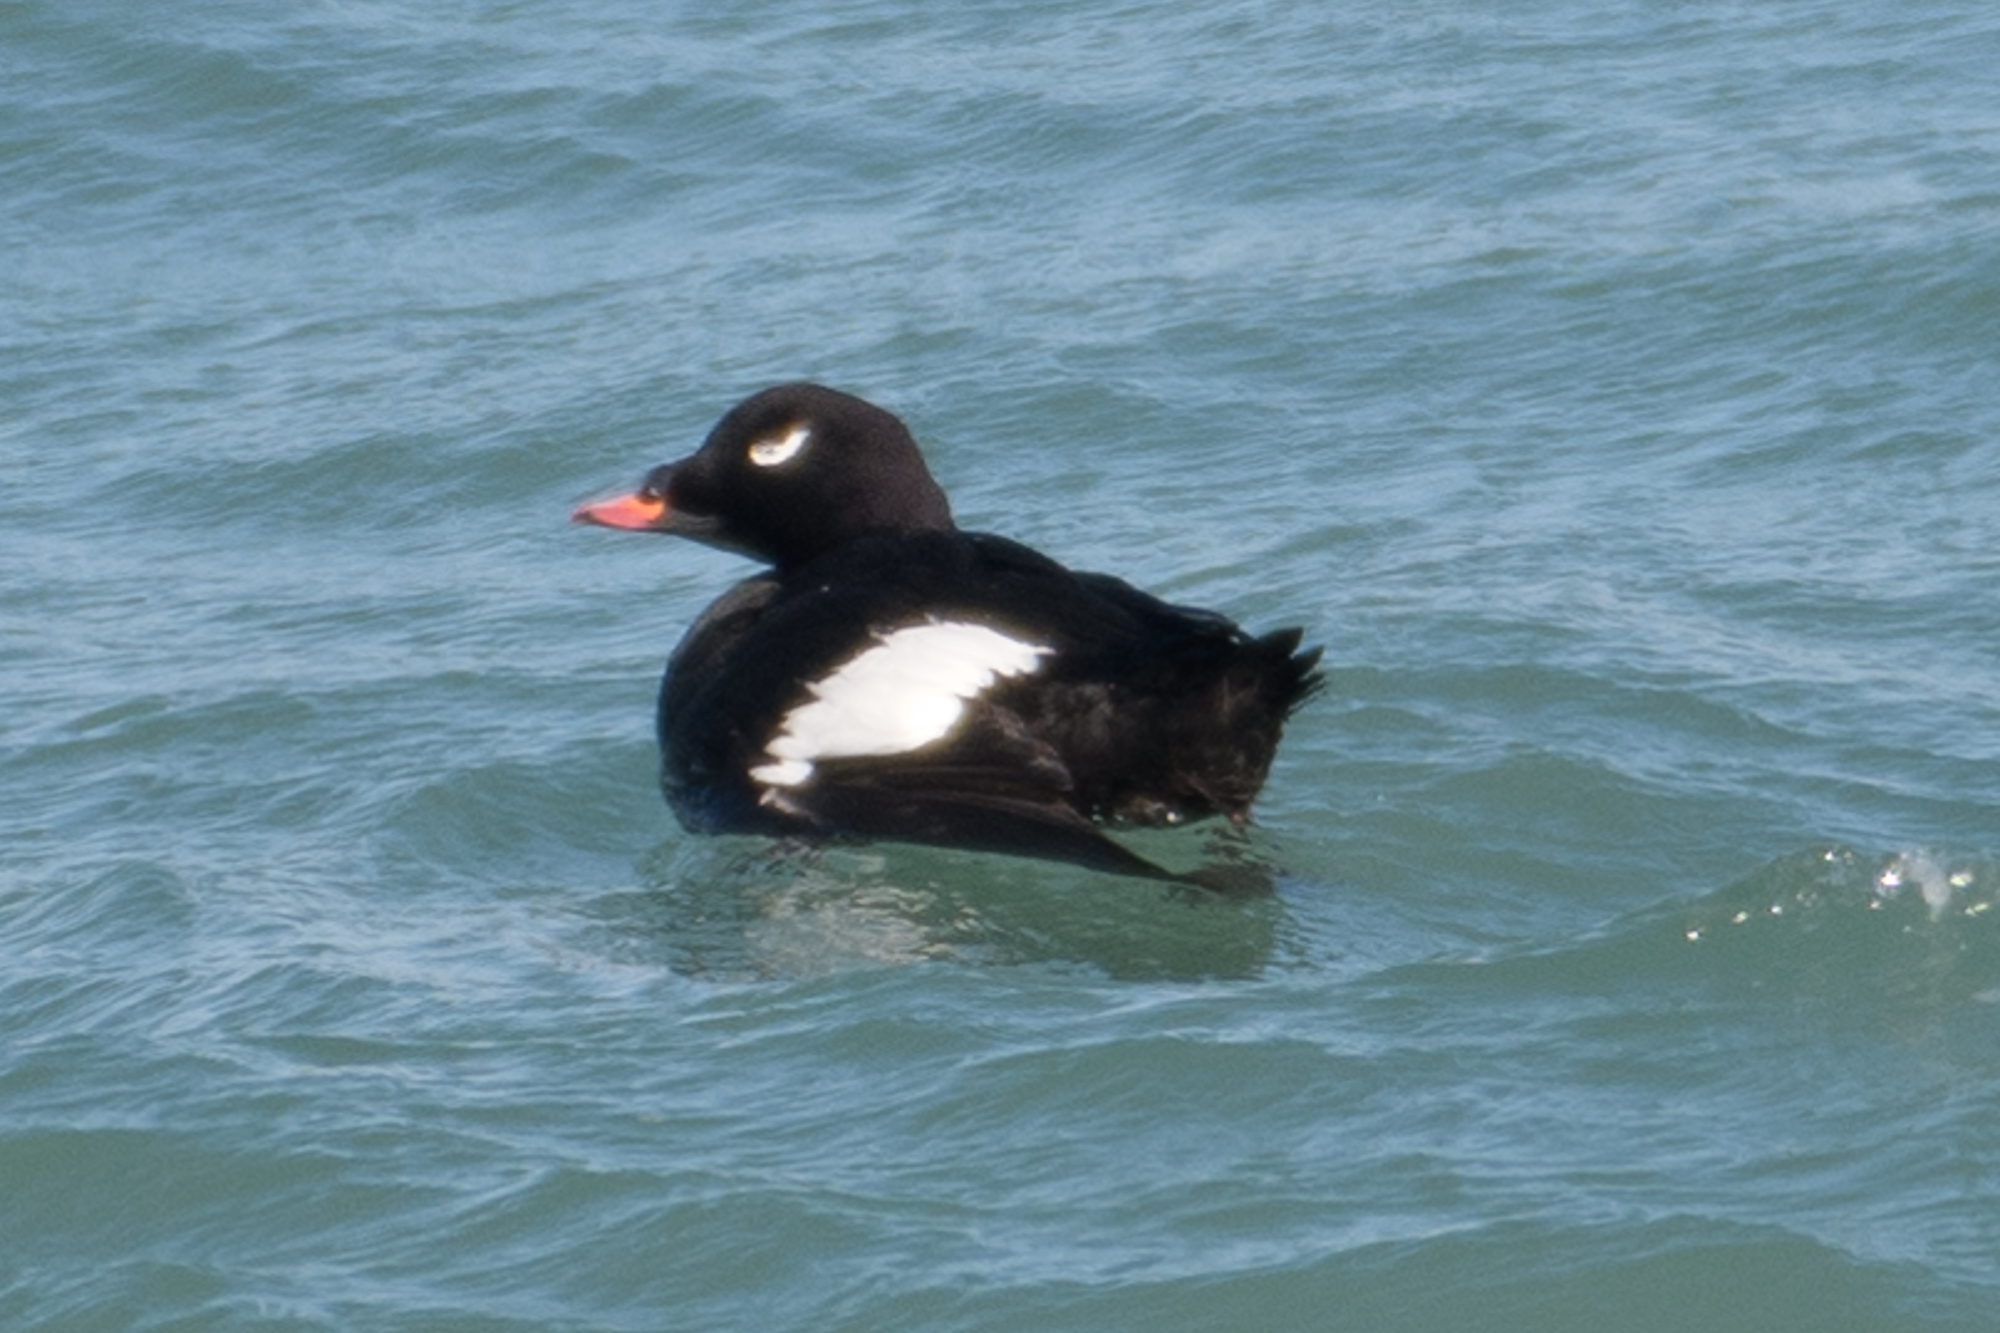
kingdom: Animalia
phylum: Chordata
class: Aves
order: Anseriformes
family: Anatidae
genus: Melanitta
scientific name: Melanitta deglandi
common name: White-winged scoter
